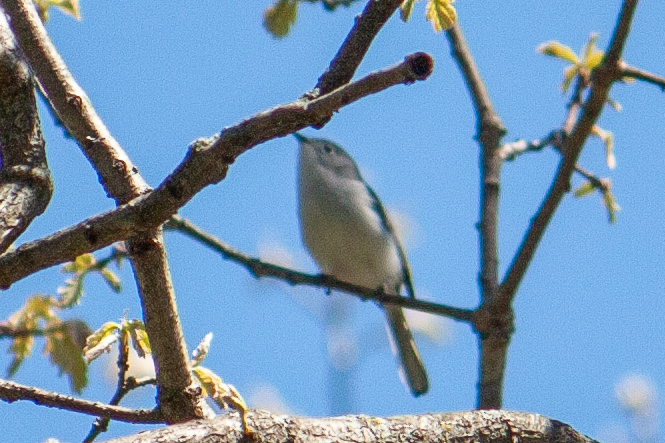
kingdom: Animalia
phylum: Chordata
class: Aves
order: Passeriformes
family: Polioptilidae
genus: Polioptila
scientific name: Polioptila caerulea
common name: Blue-gray gnatcatcher
